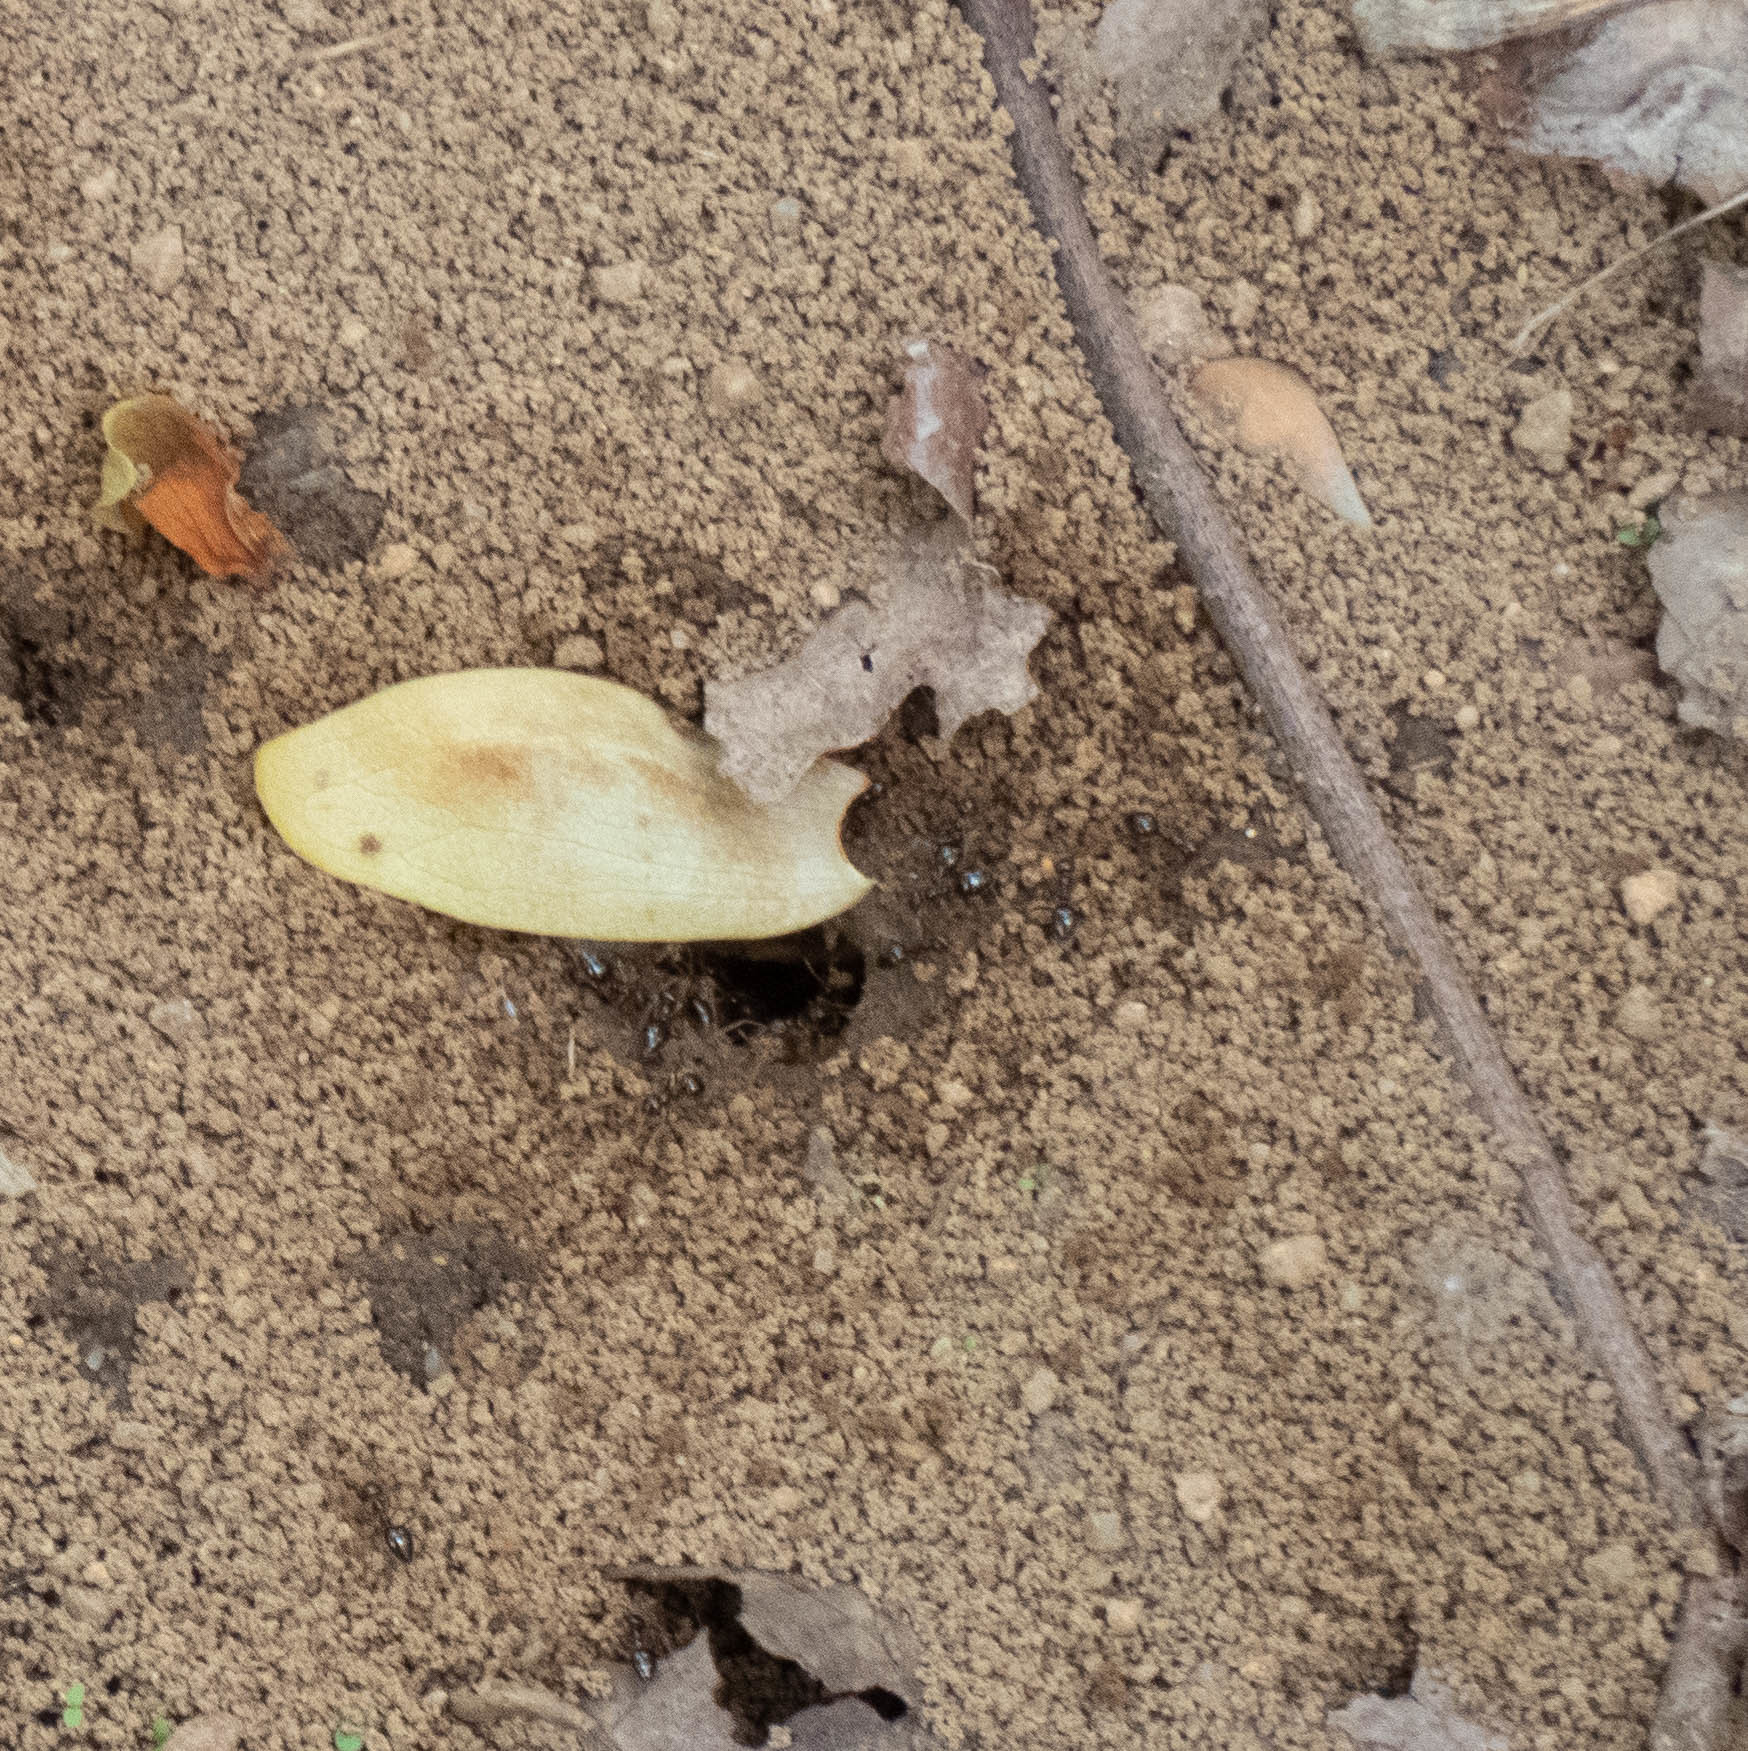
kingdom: Animalia
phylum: Arthropoda
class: Insecta
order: Hymenoptera
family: Formicidae
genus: Prenolepis
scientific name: Prenolepis imparis
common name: Small honey ant
